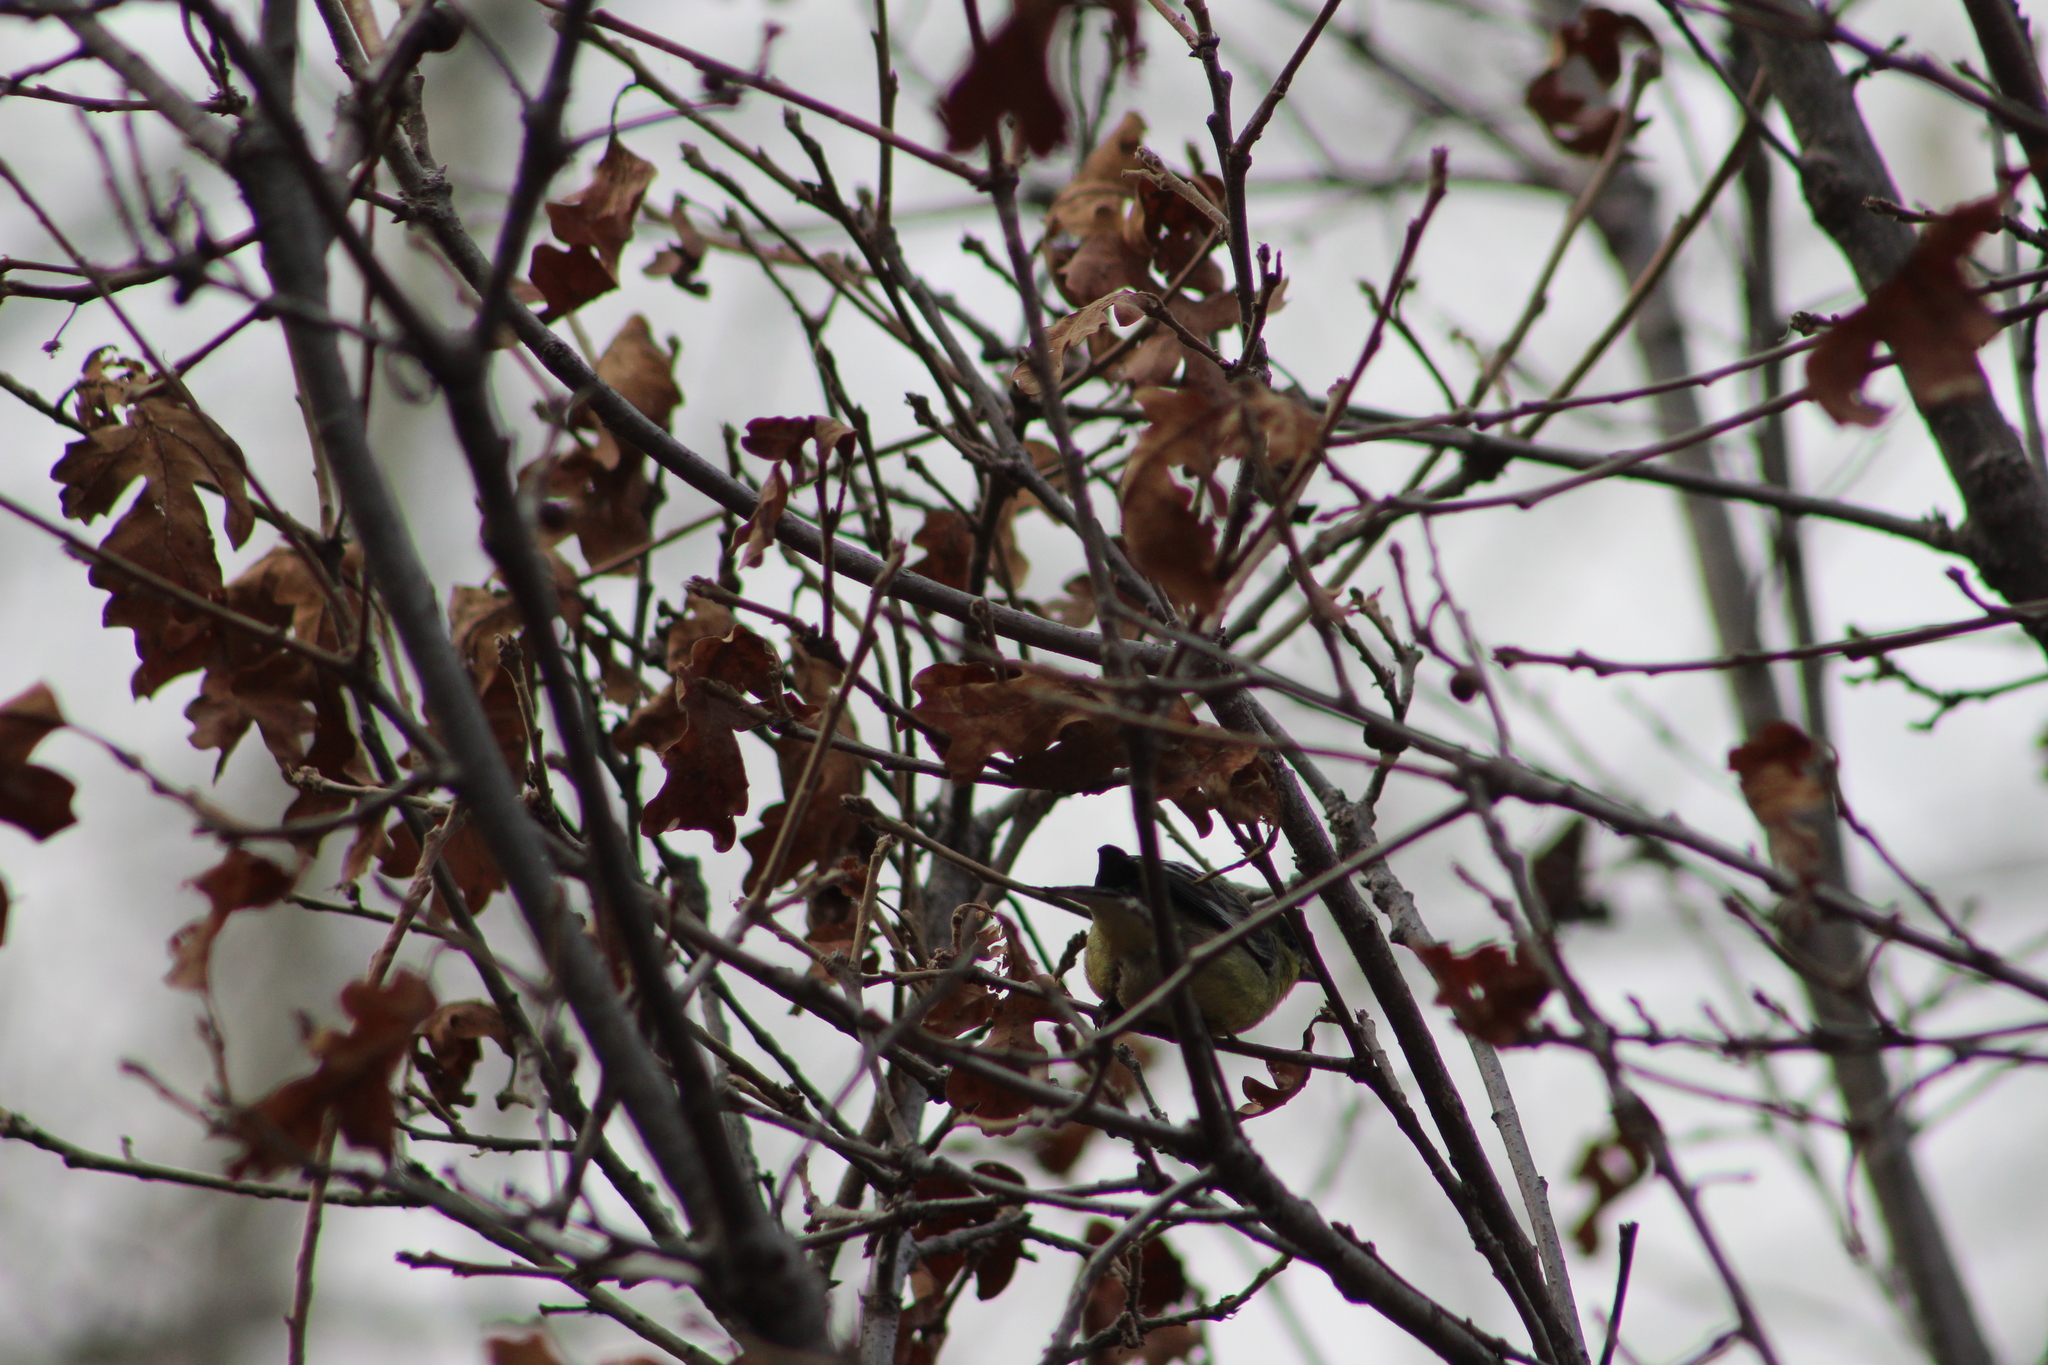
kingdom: Animalia
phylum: Chordata
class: Aves
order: Passeriformes
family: Fringillidae
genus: Spinus
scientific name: Spinus psaltria
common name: Lesser goldfinch
